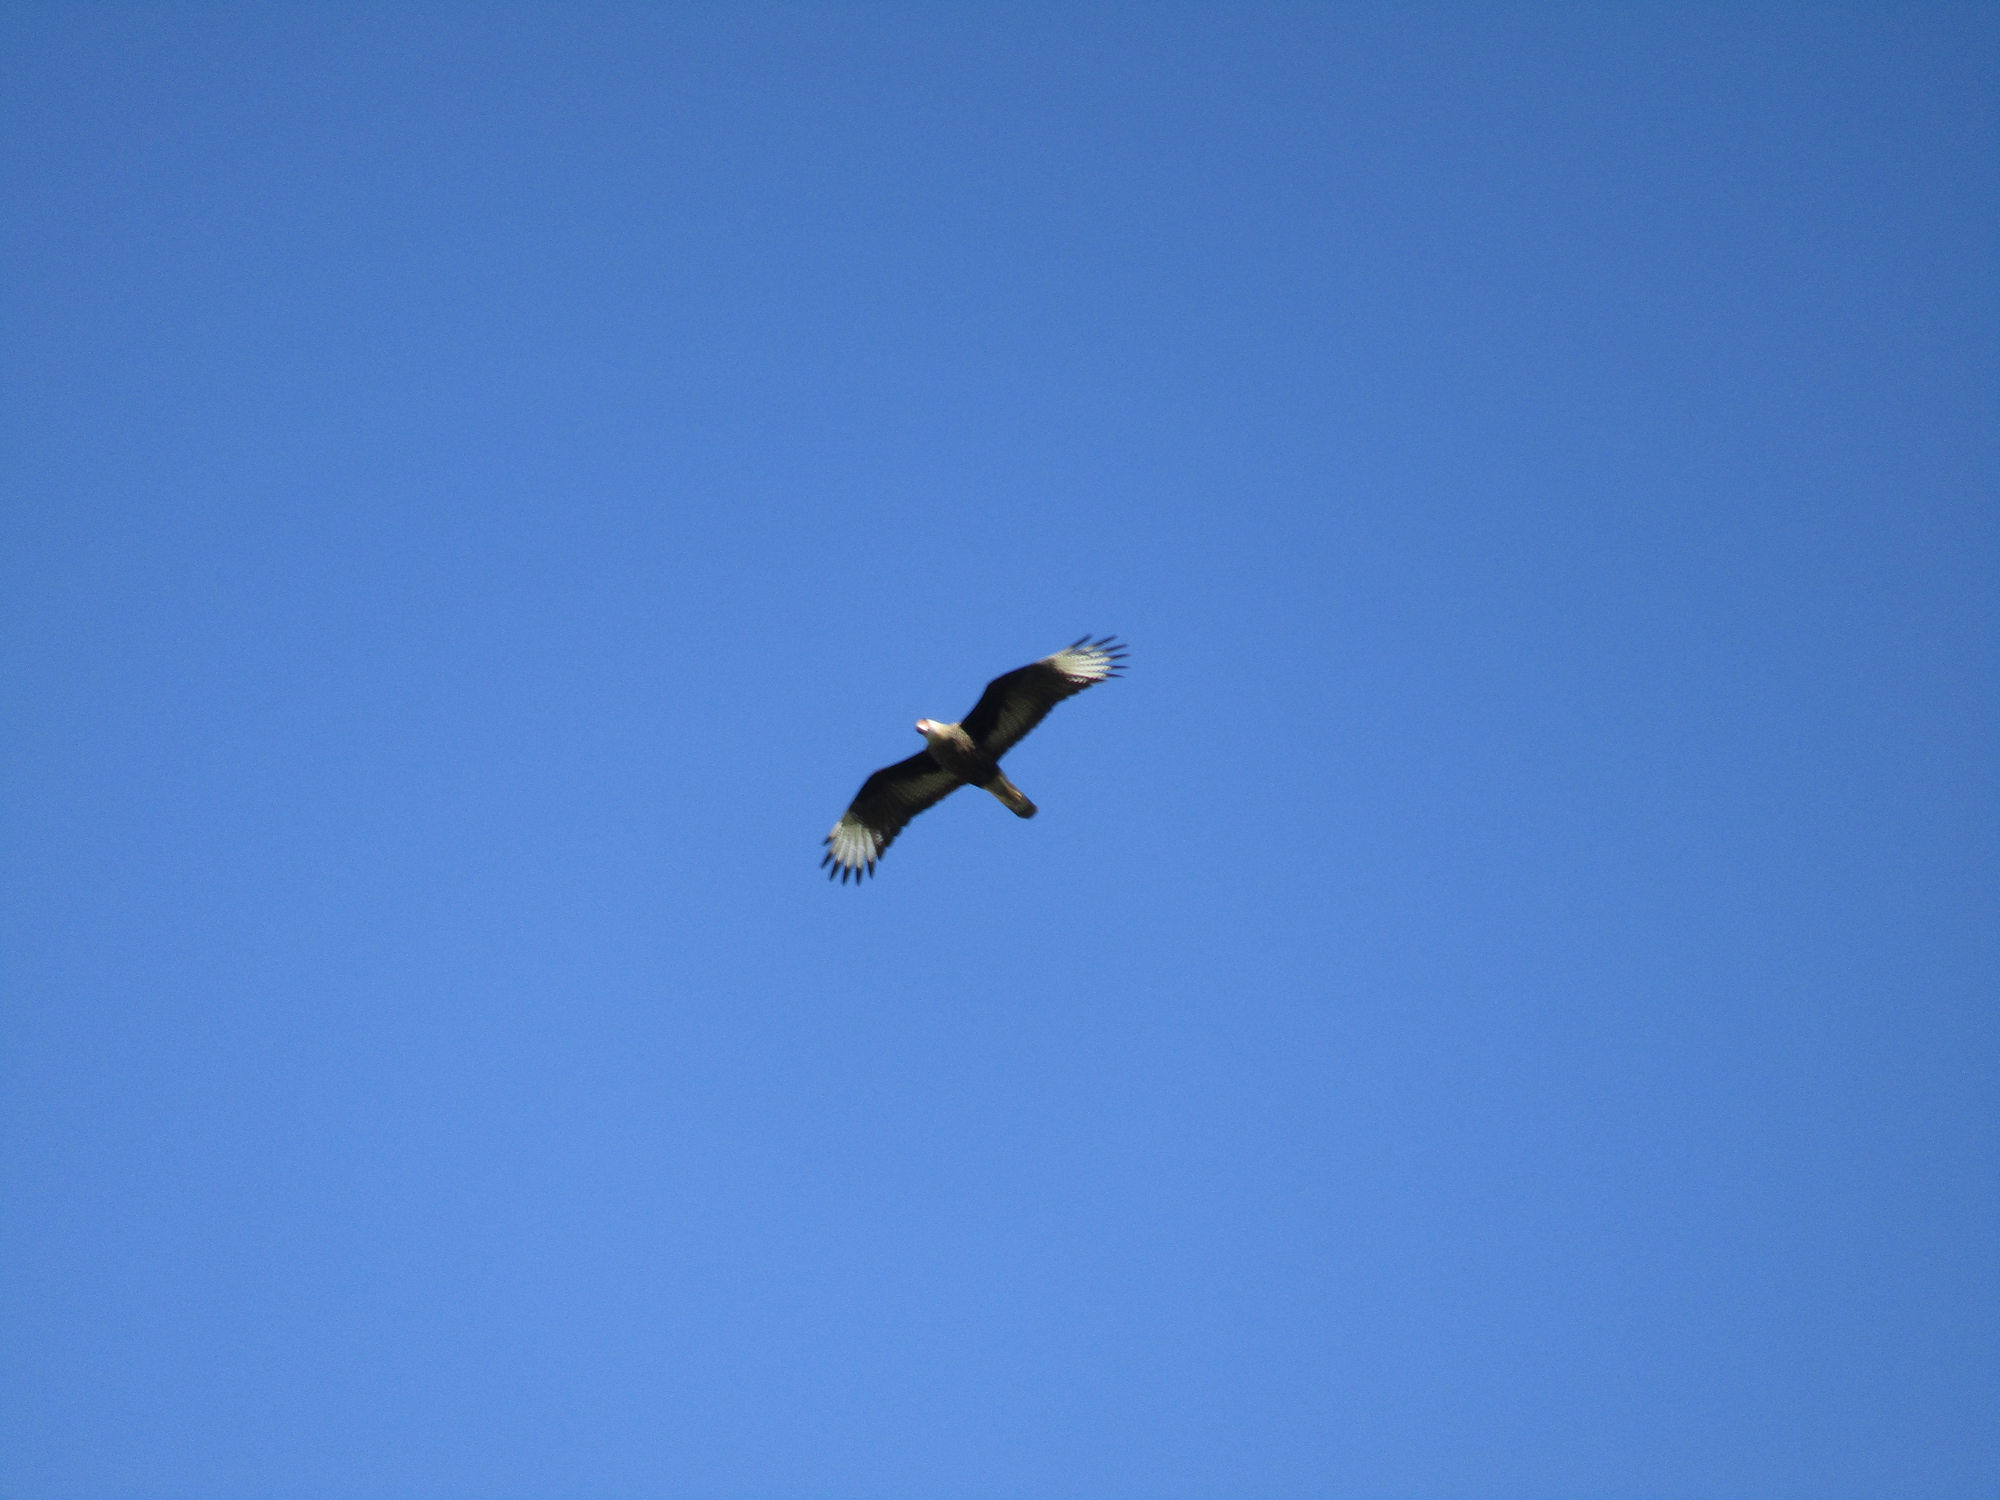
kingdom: Animalia
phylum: Chordata
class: Aves
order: Falconiformes
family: Falconidae
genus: Caracara
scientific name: Caracara plancus
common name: Southern caracara
